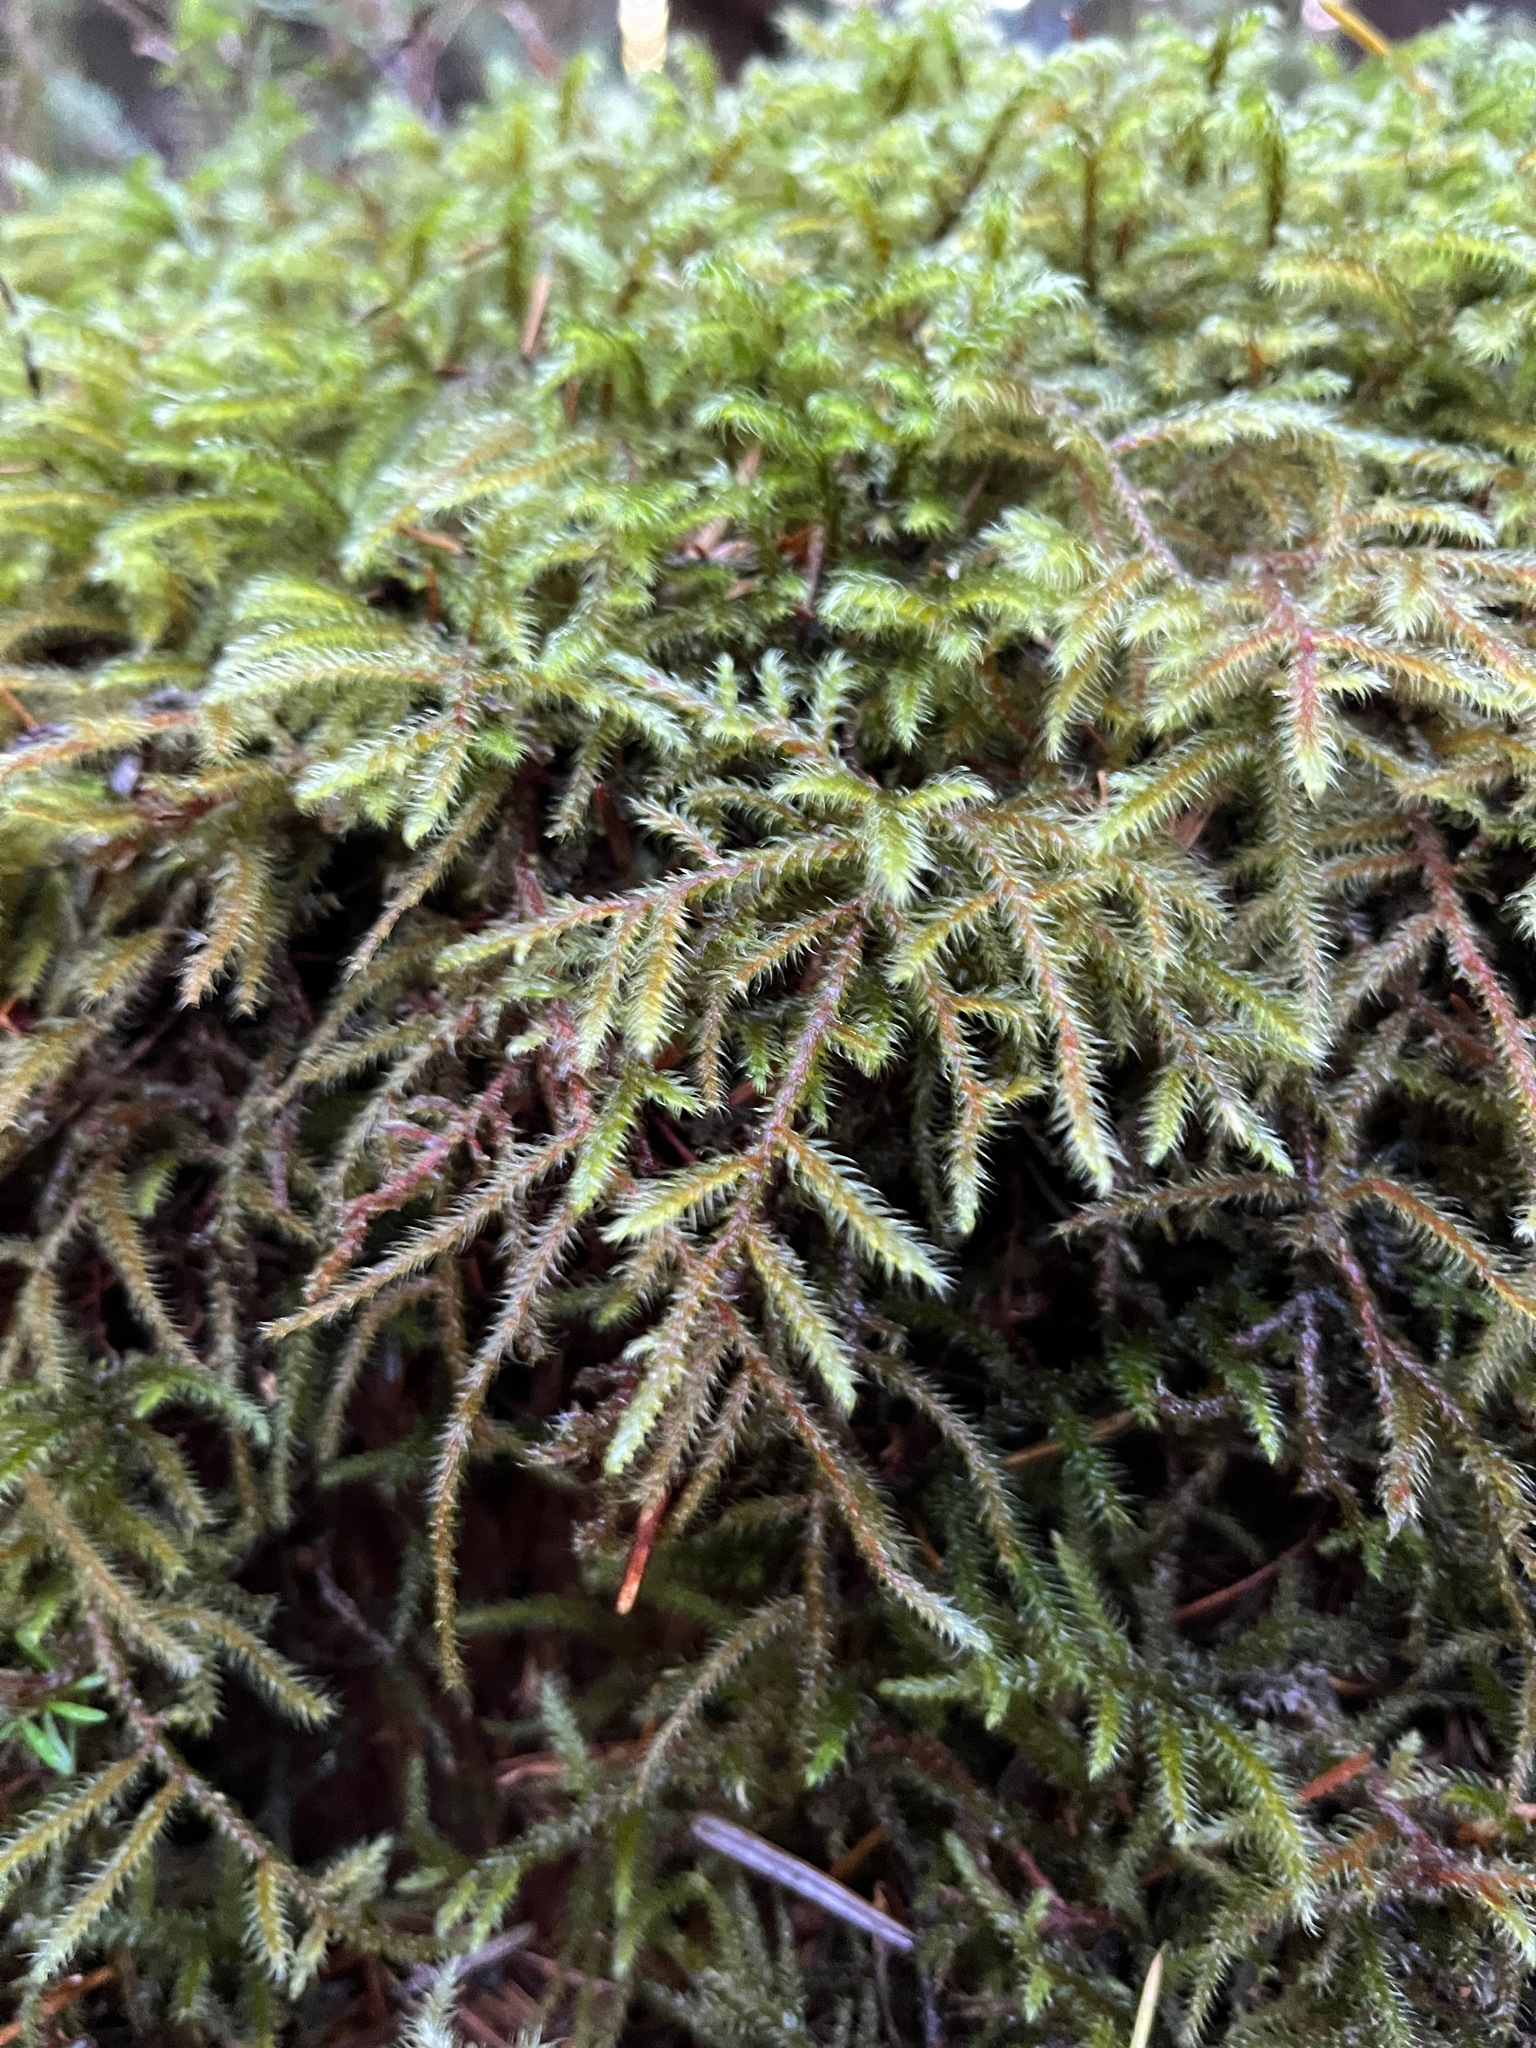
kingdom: Plantae
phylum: Bryophyta
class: Bryopsida
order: Hypnales
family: Hylocomiaceae
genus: Rhytidiadelphus
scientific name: Rhytidiadelphus loreus
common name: Lanky moss
